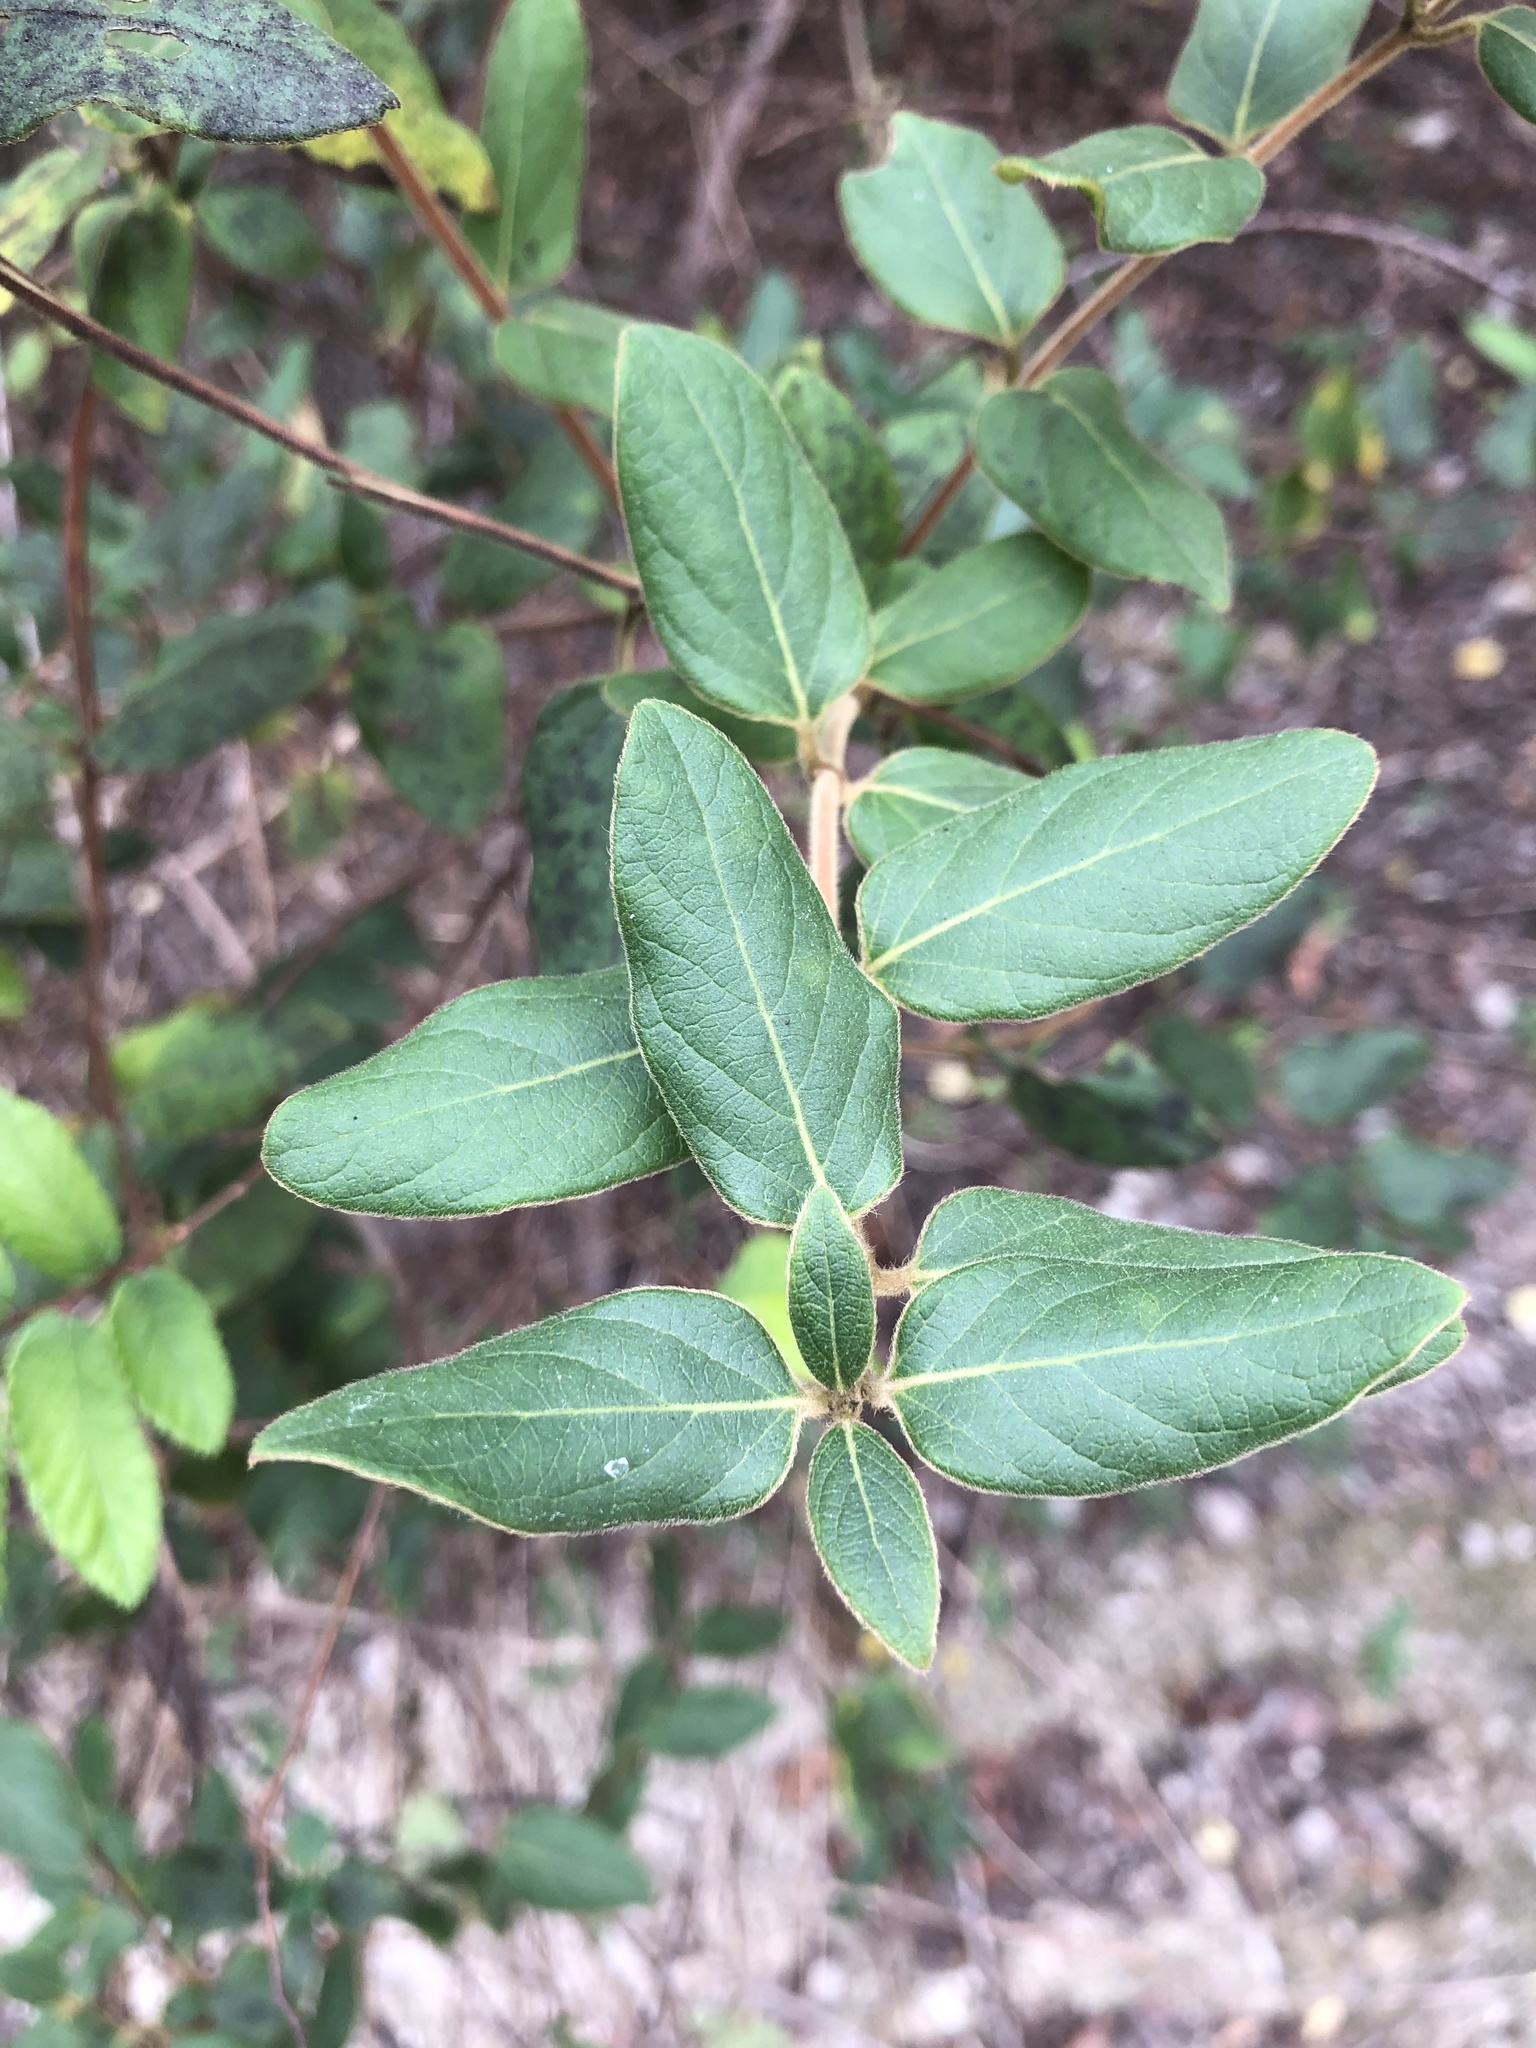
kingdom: Plantae
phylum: Tracheophyta
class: Magnoliopsida
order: Dipsacales
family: Caprifoliaceae
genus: Lonicera
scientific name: Lonicera japonica
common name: Japanese honeysuckle
